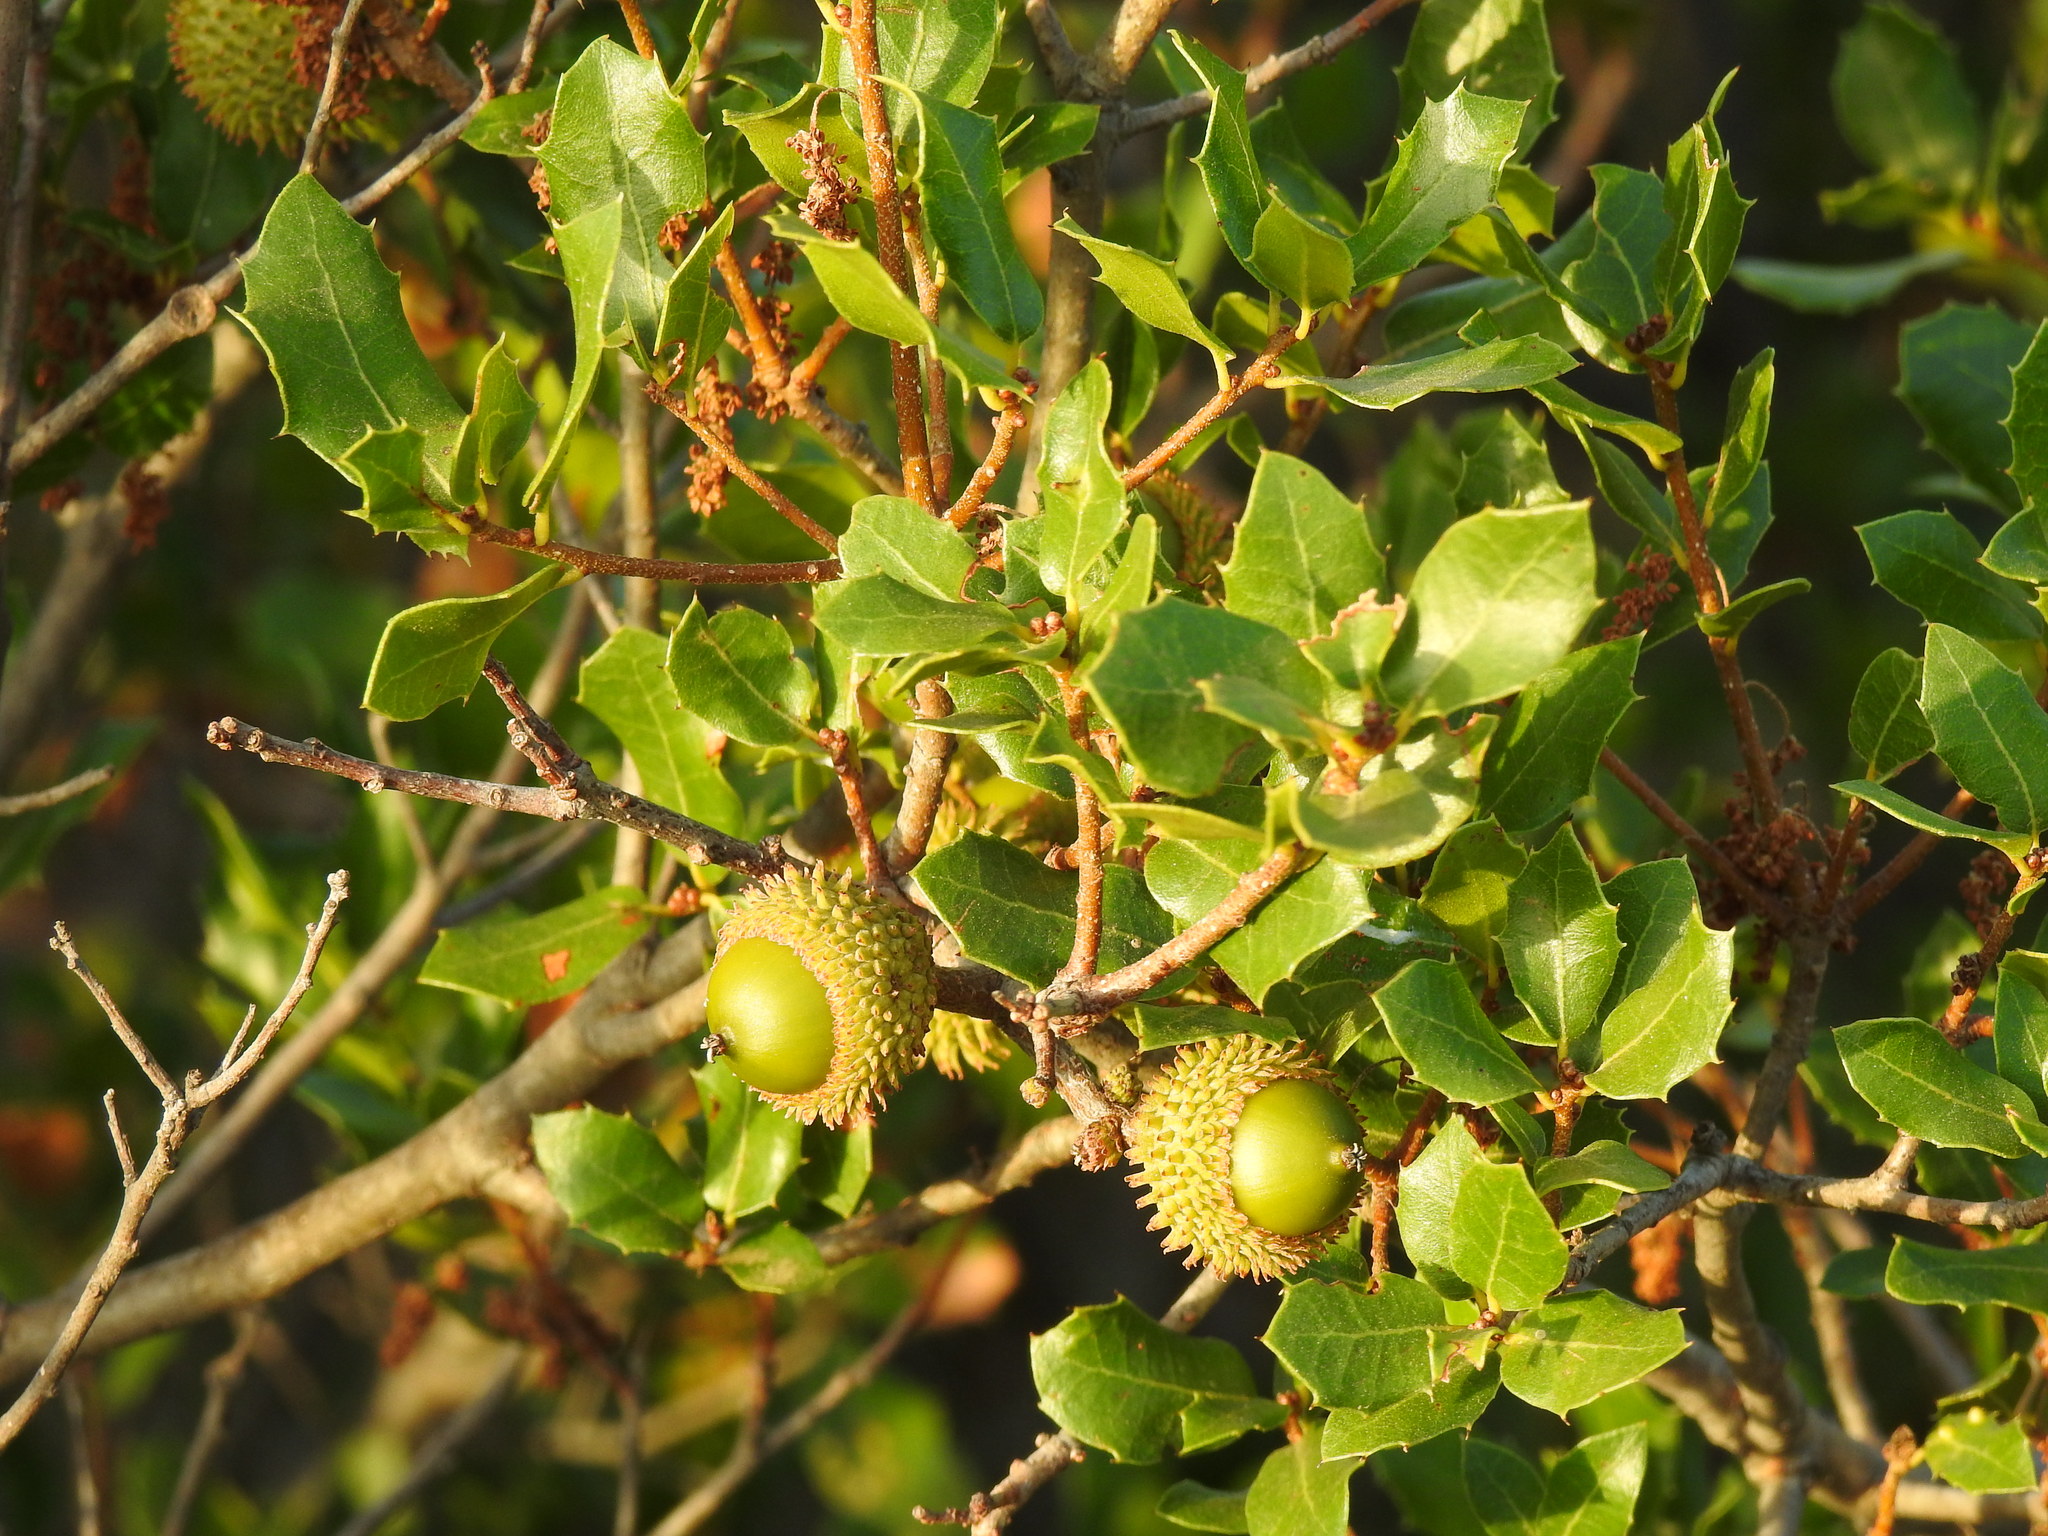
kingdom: Plantae
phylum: Tracheophyta
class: Magnoliopsida
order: Fagales
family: Fagaceae
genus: Quercus
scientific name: Quercus coccifera
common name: Kermes oak
